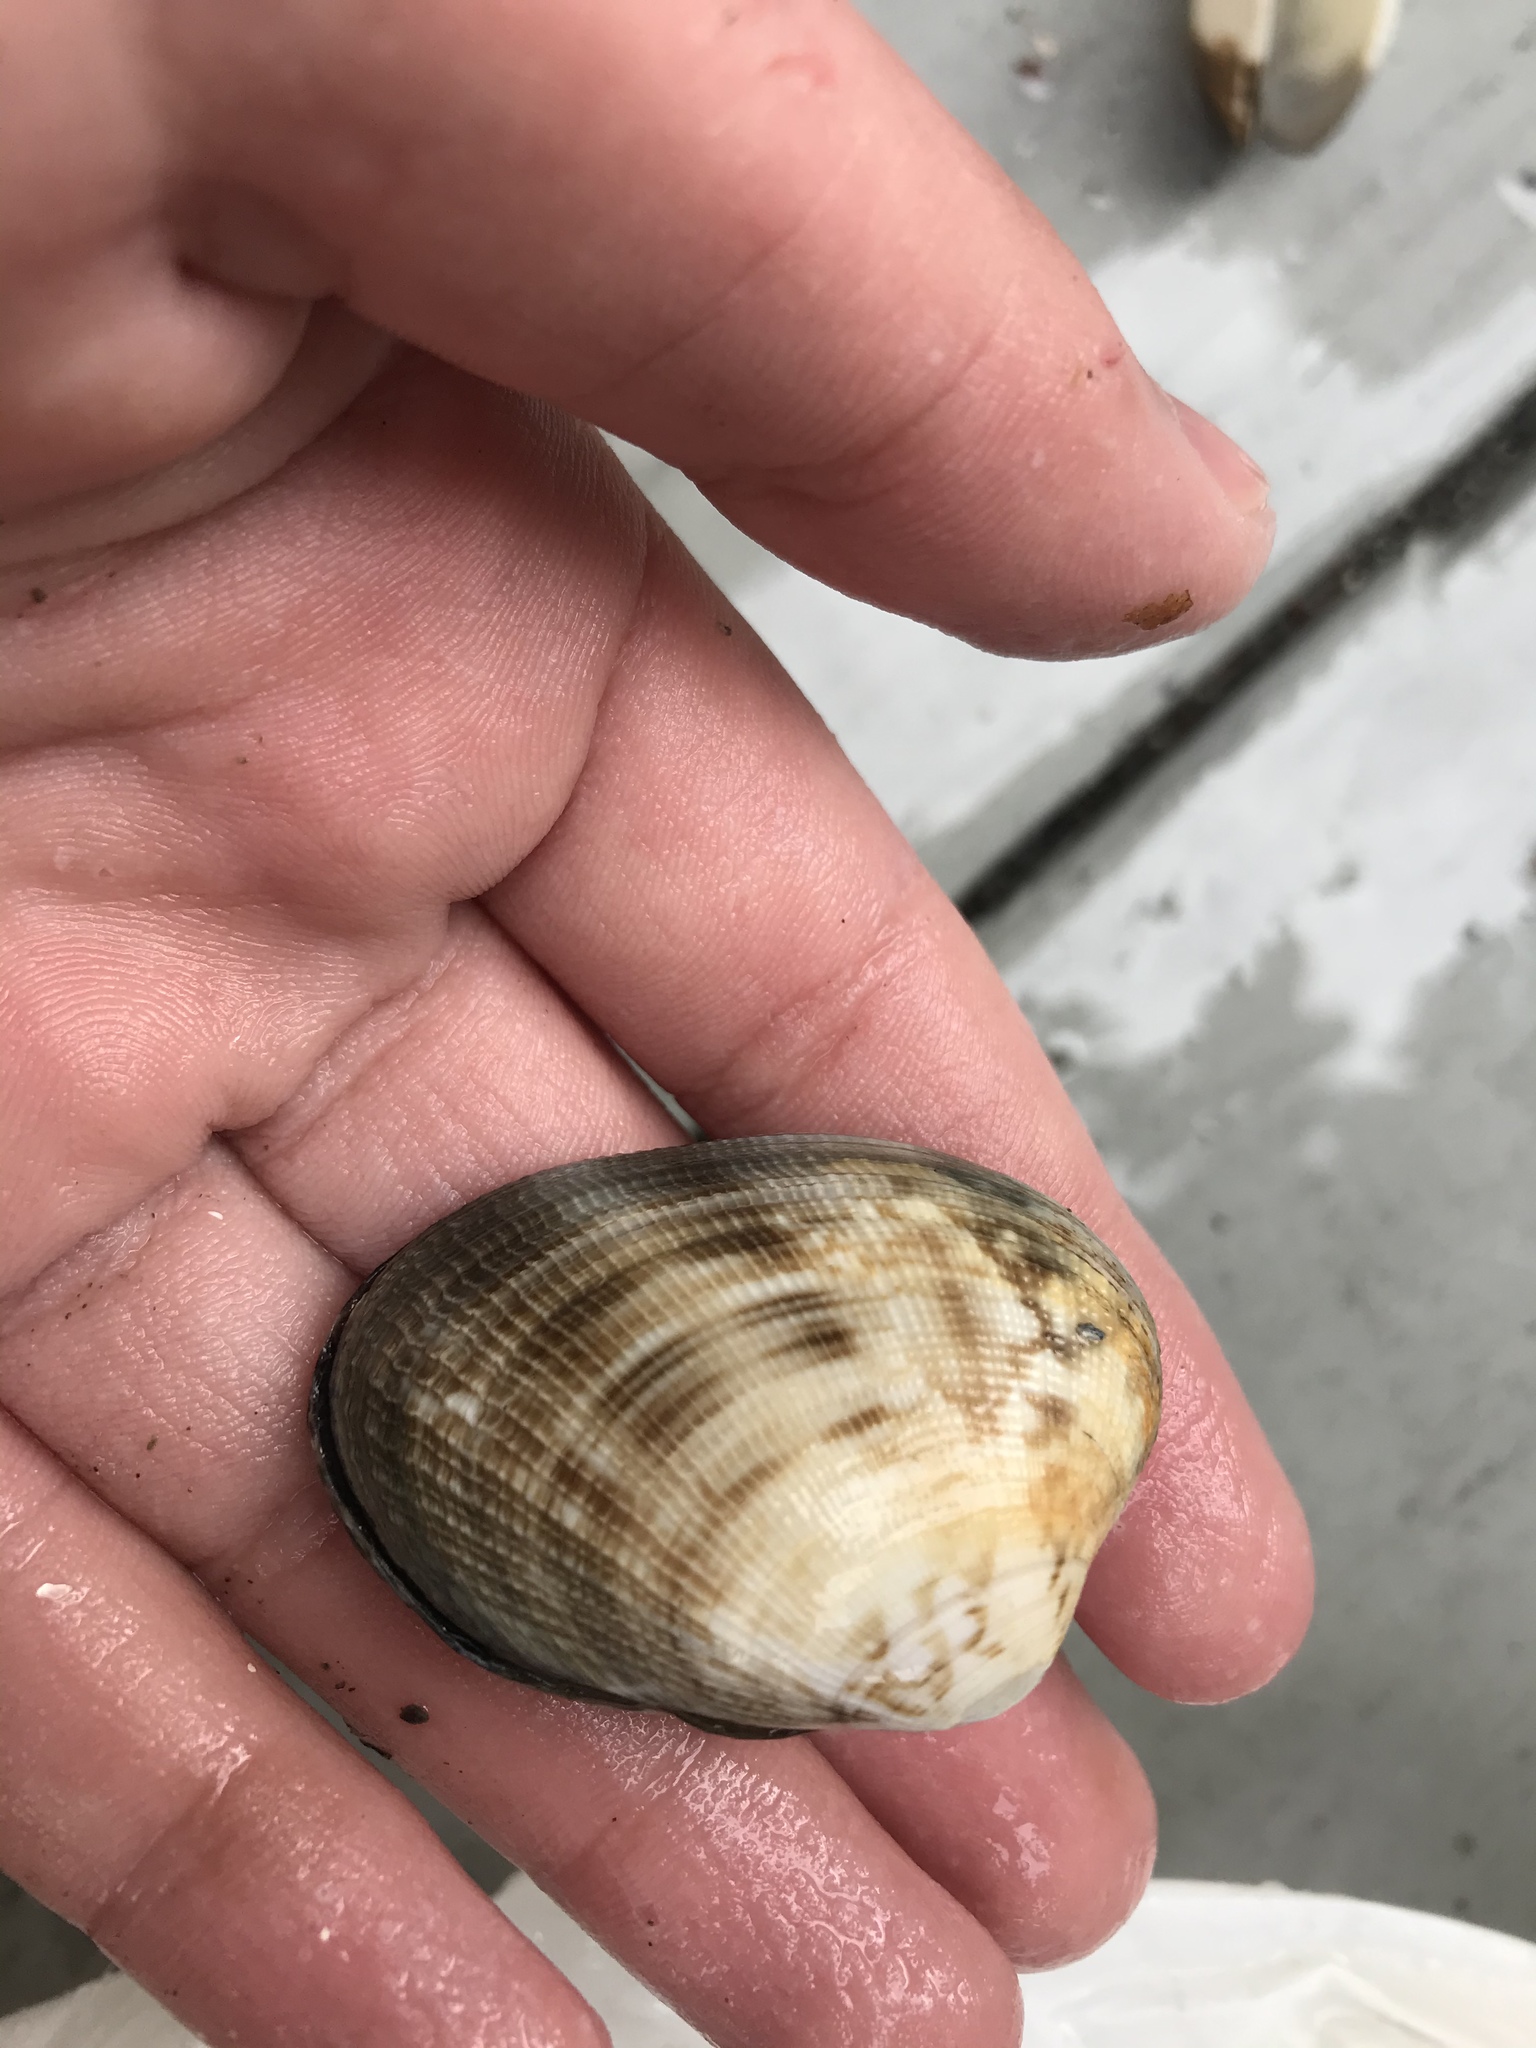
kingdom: Animalia
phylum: Mollusca
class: Bivalvia
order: Venerida
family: Veneridae
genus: Ruditapes
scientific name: Ruditapes philippinarum
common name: Manila clam
